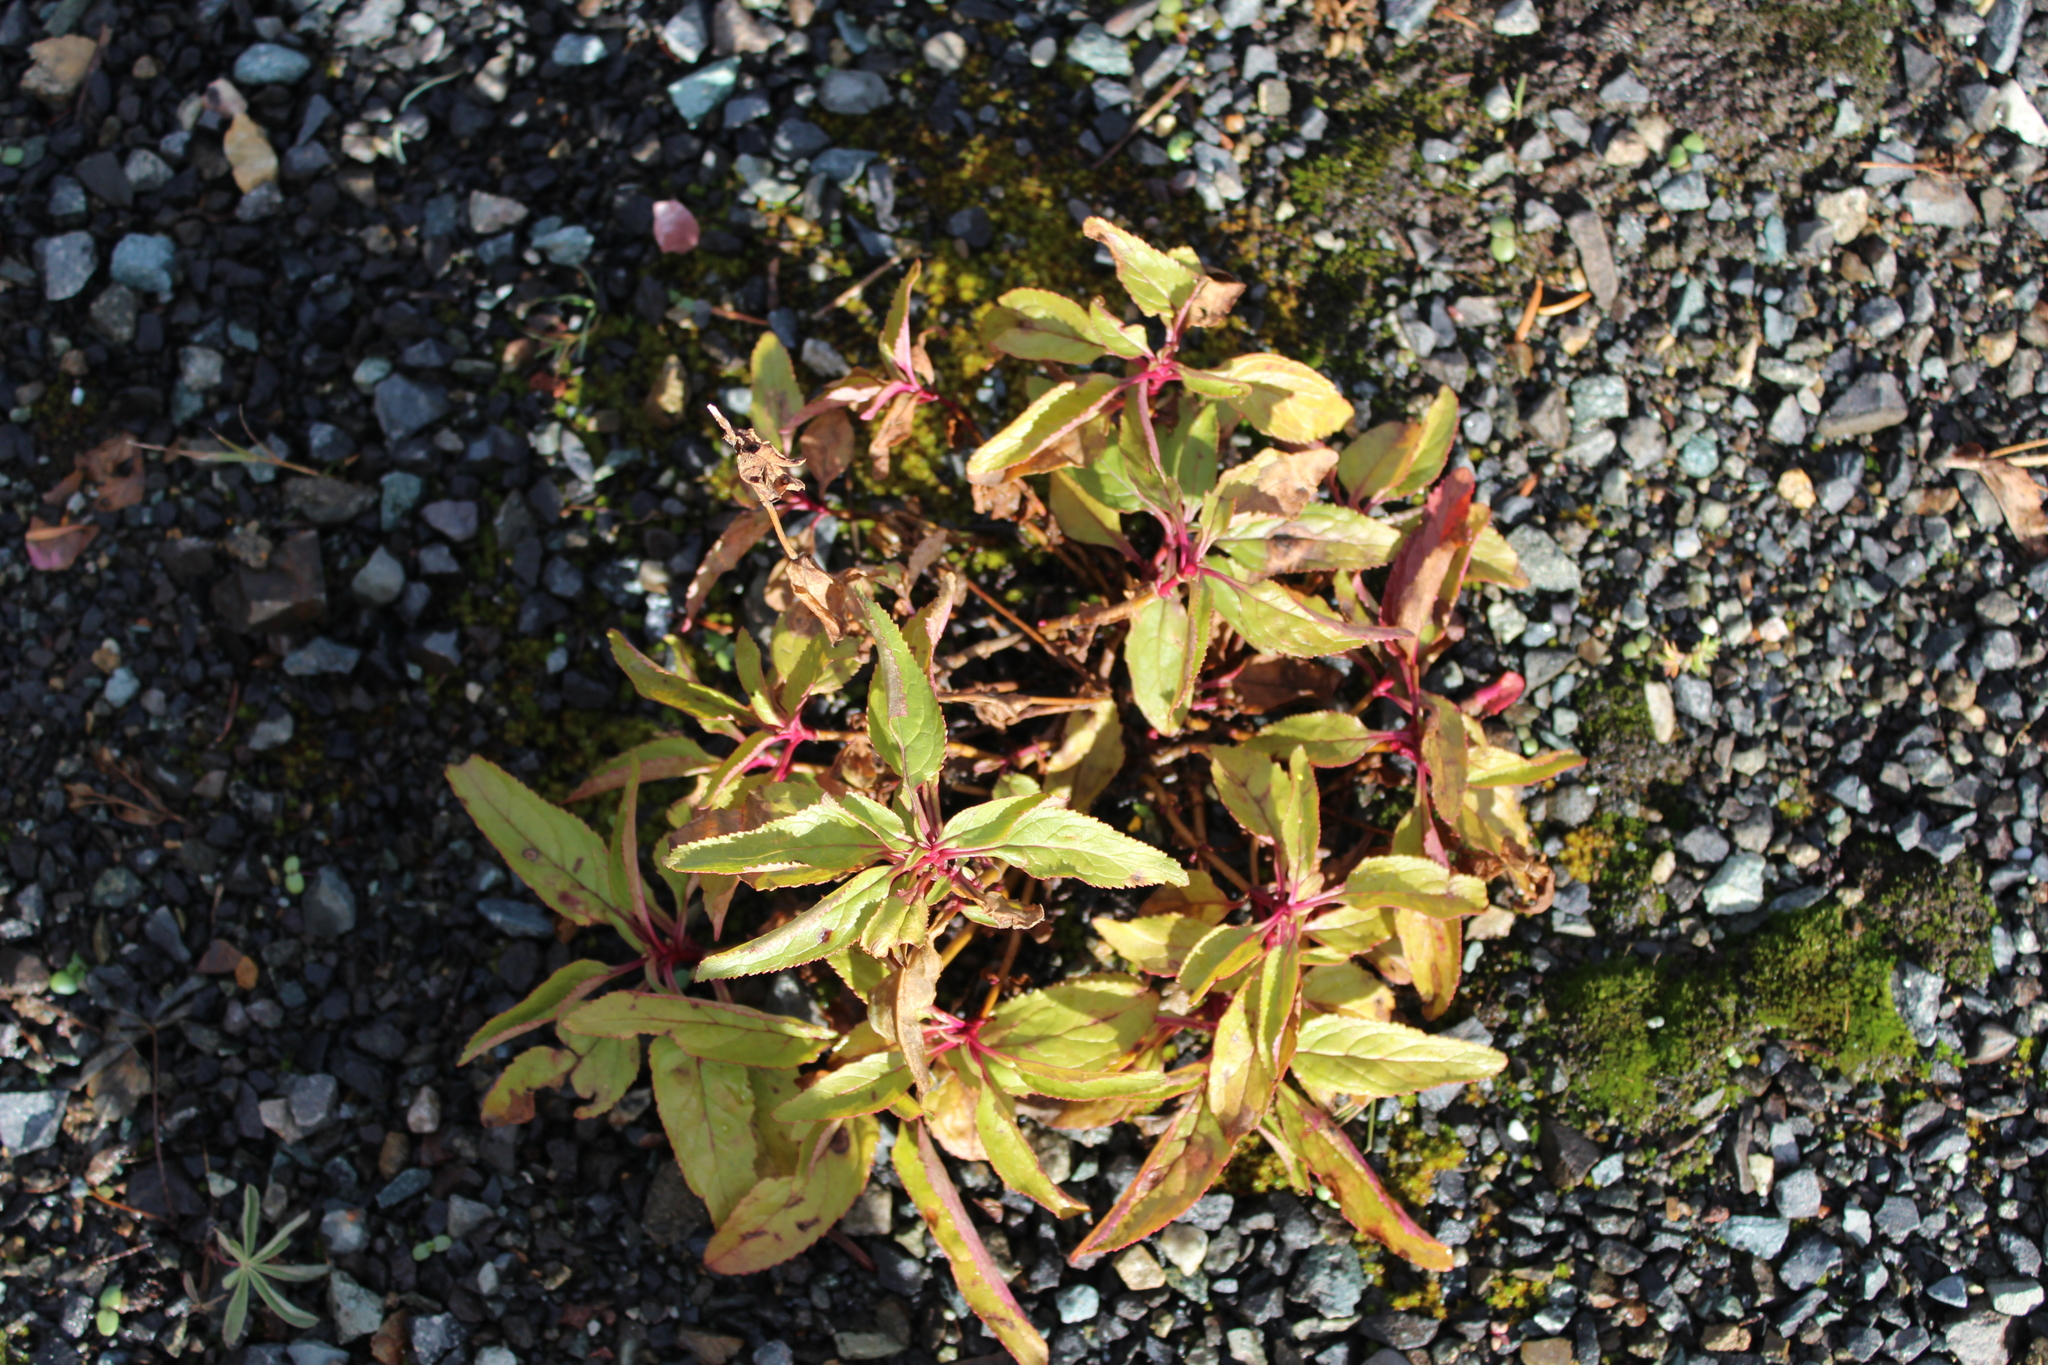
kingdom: Plantae
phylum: Tracheophyta
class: Magnoliopsida
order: Lamiales
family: Plantaginaceae
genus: Penstemon
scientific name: Penstemon serrulatus
